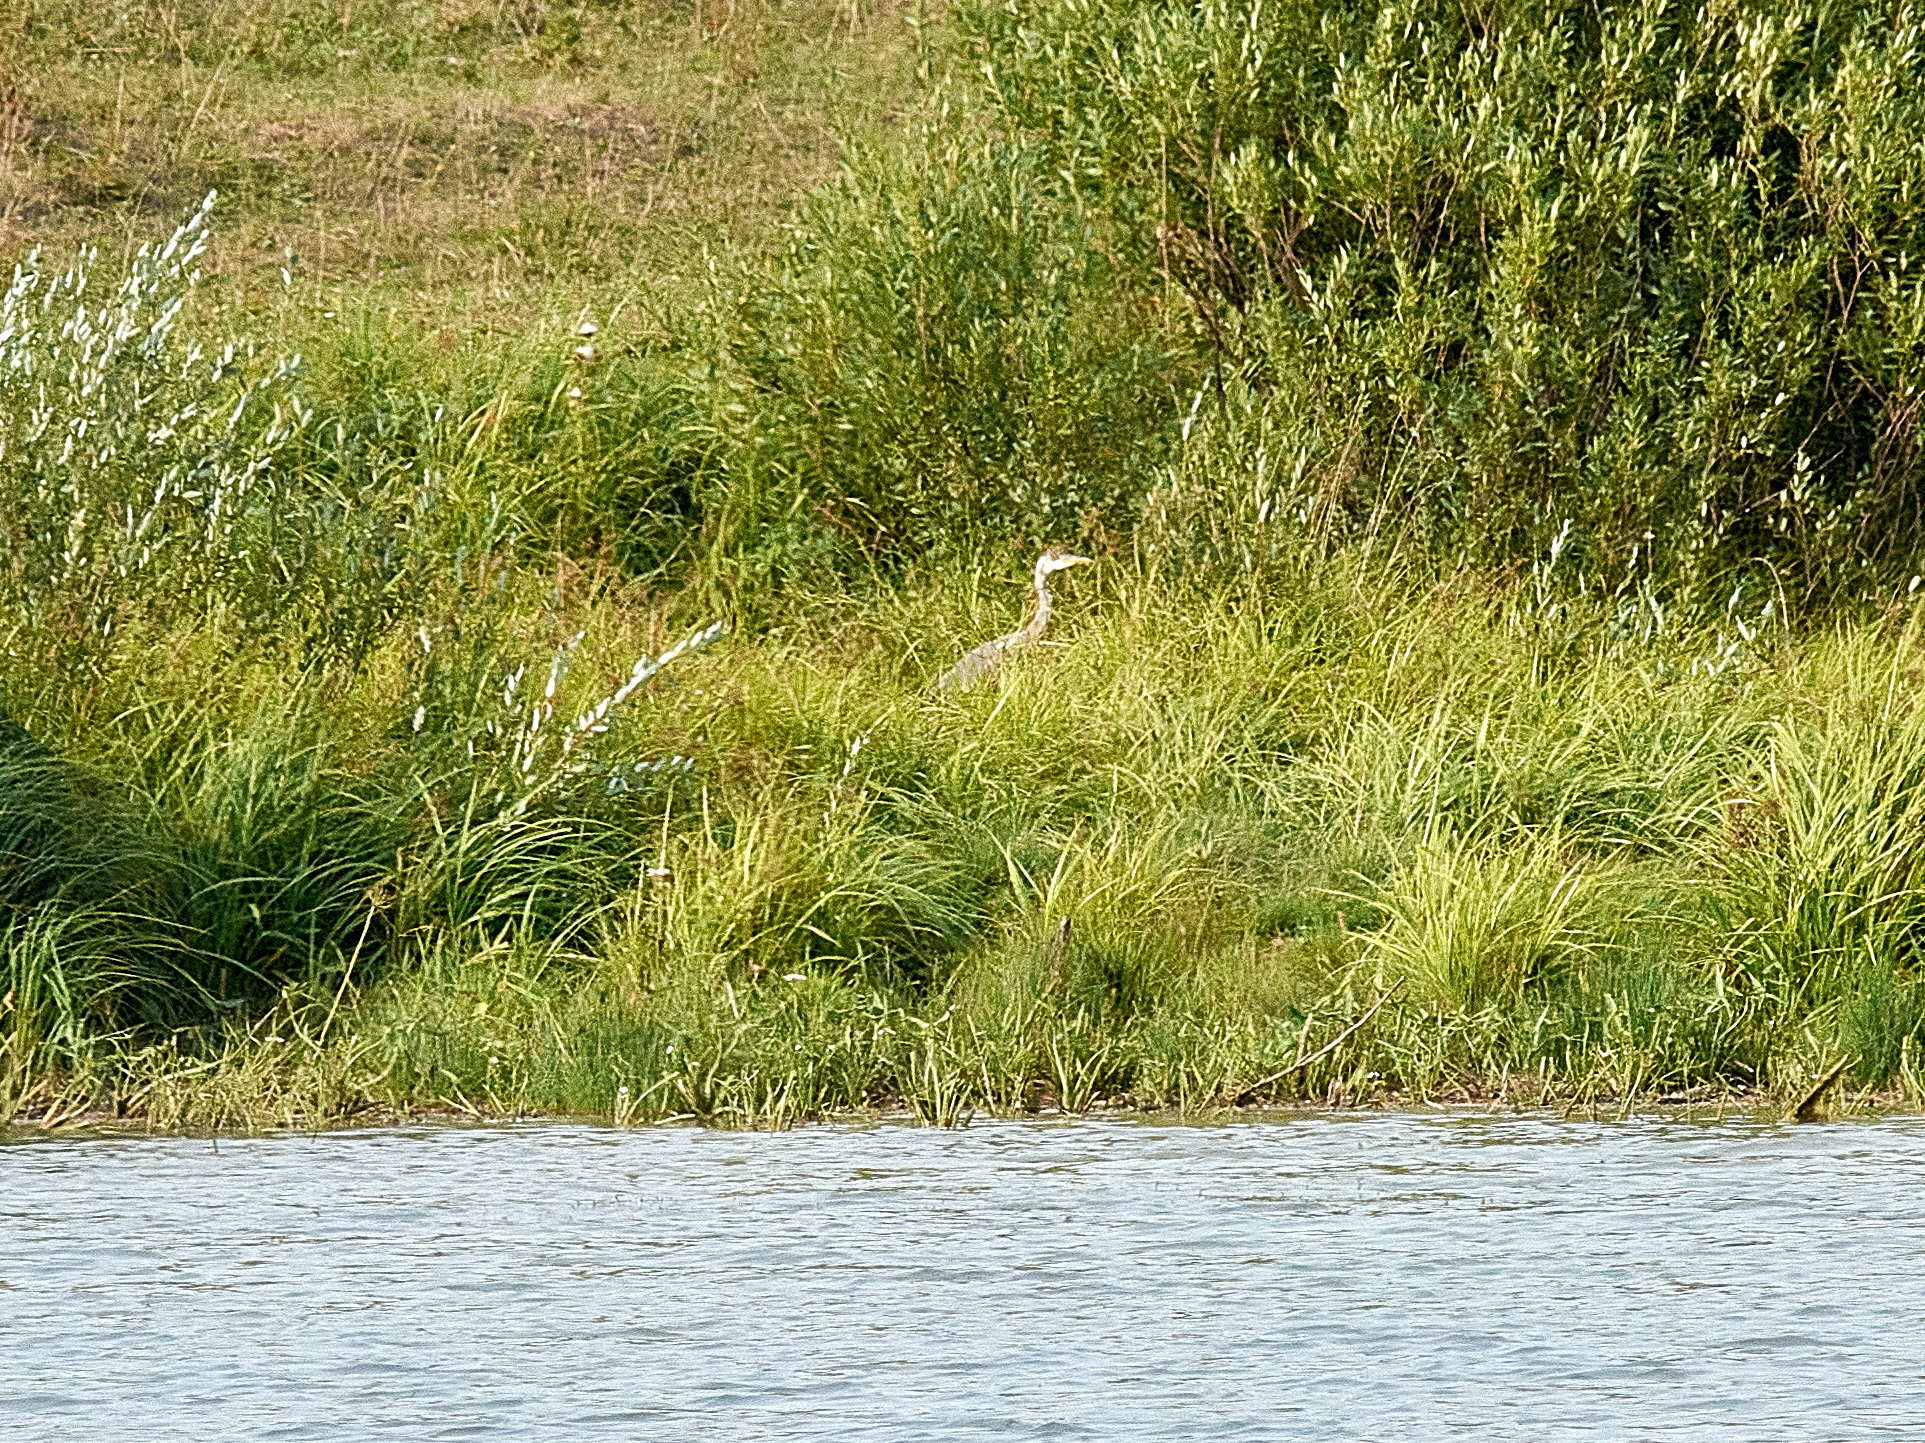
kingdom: Animalia
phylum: Chordata
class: Aves
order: Pelecaniformes
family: Ardeidae
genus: Ardea
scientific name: Ardea cinerea
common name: Grey heron
